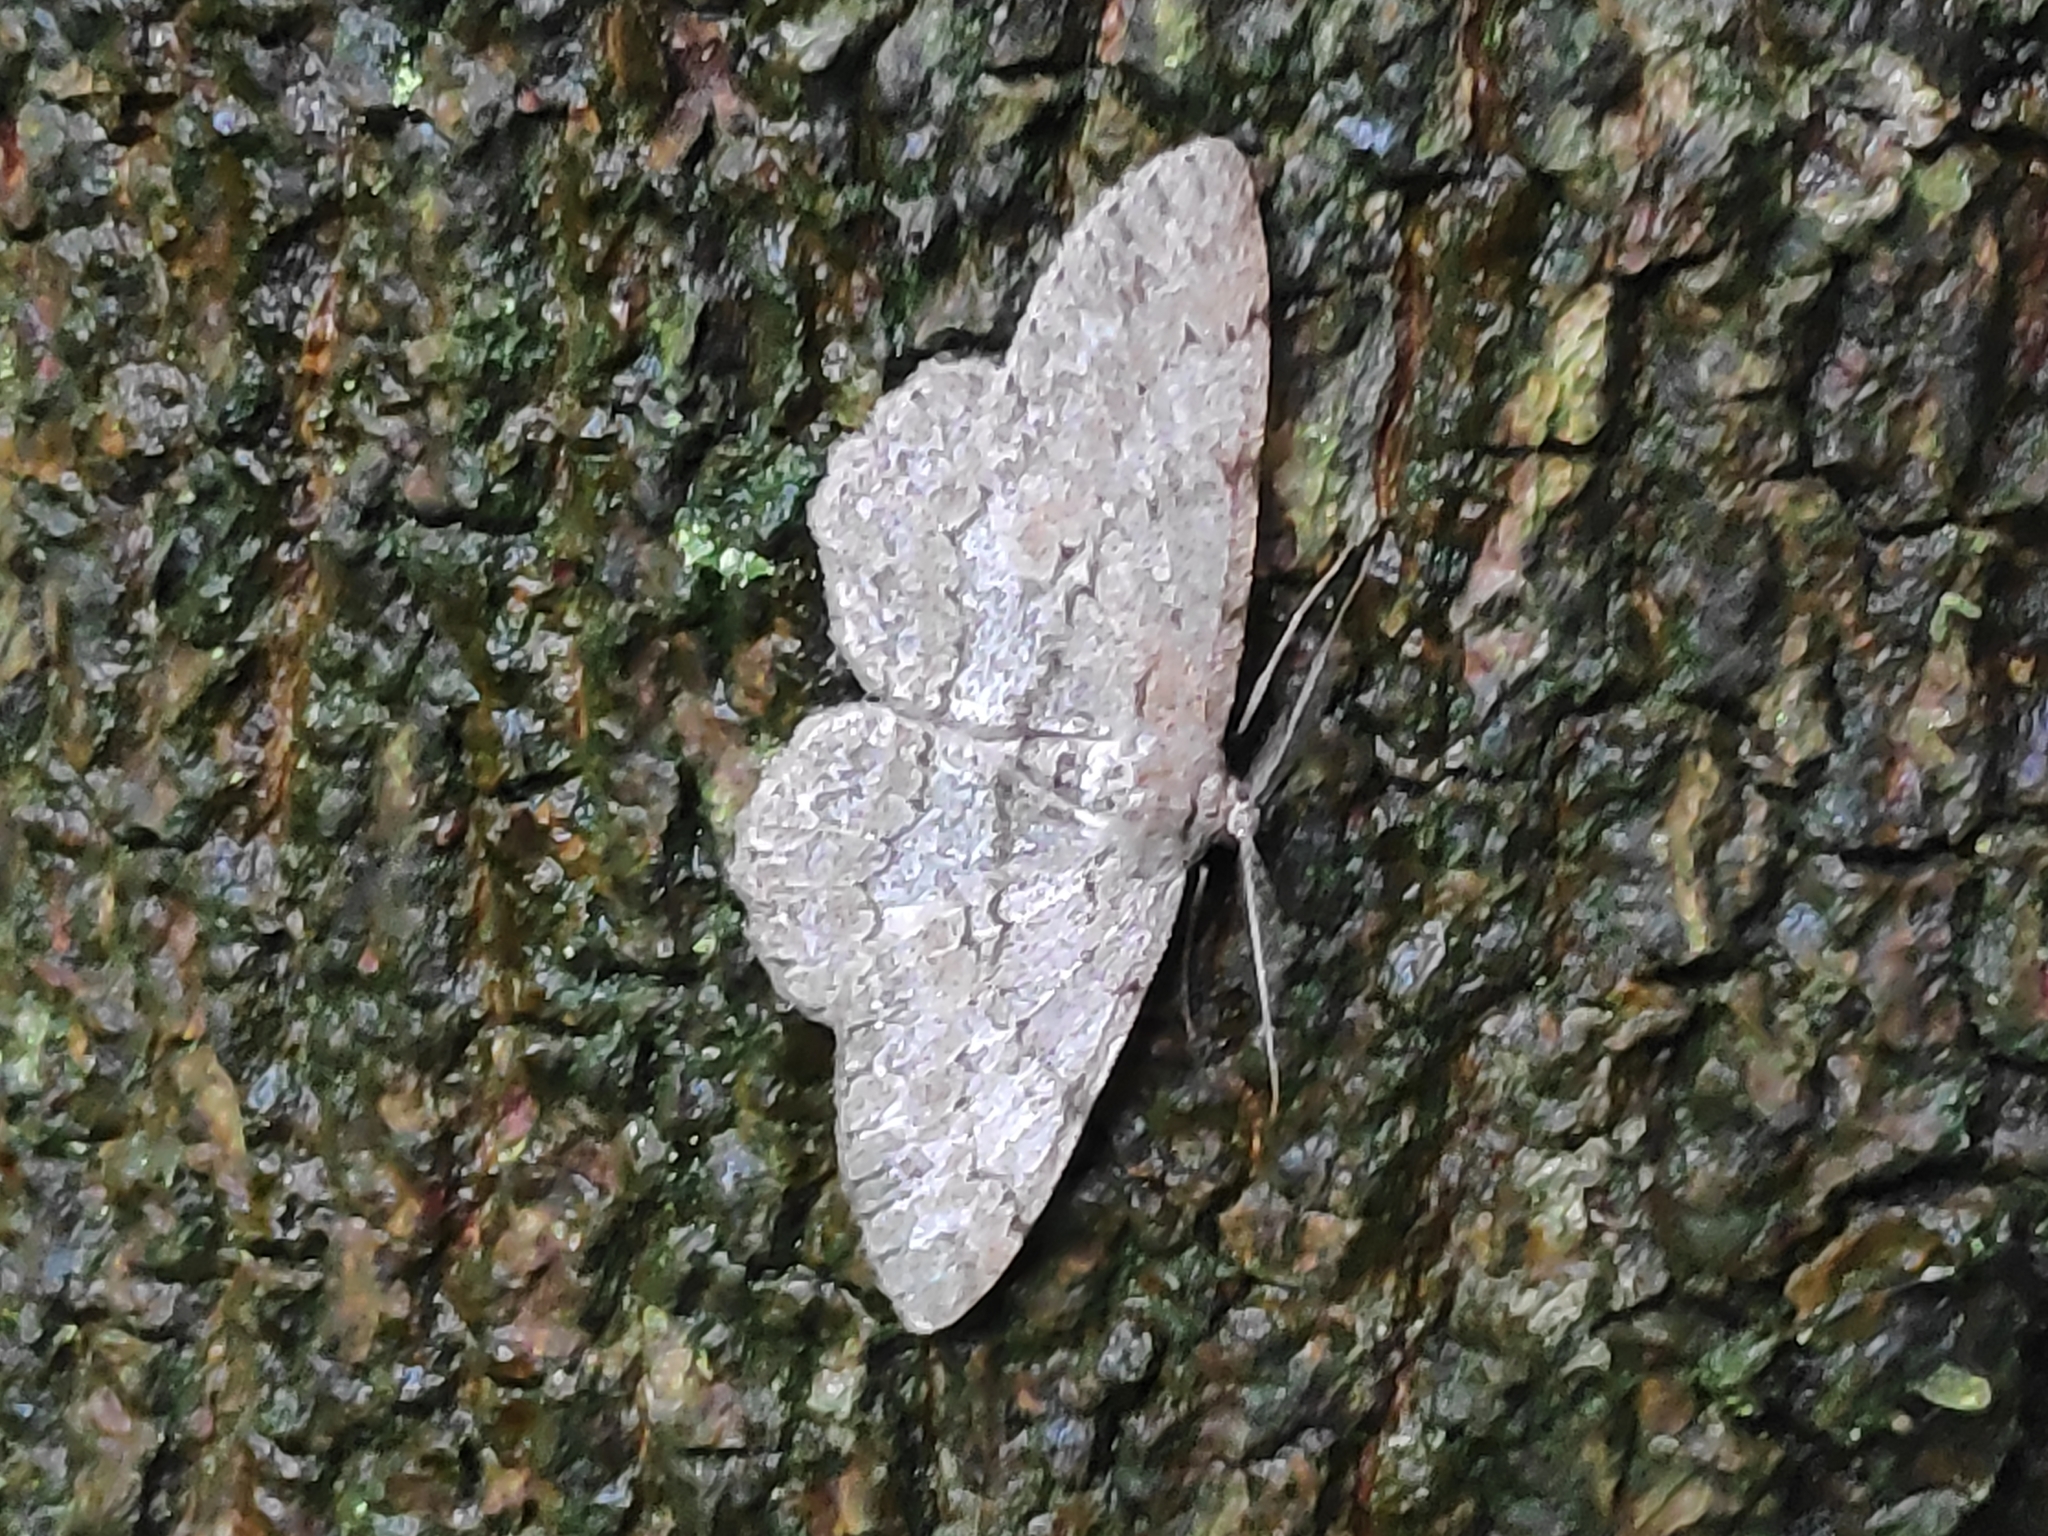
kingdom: Animalia
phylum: Arthropoda
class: Insecta
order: Lepidoptera
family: Geometridae
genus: Hypomecis
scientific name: Hypomecis punctinalis
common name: Pale oak beauty
